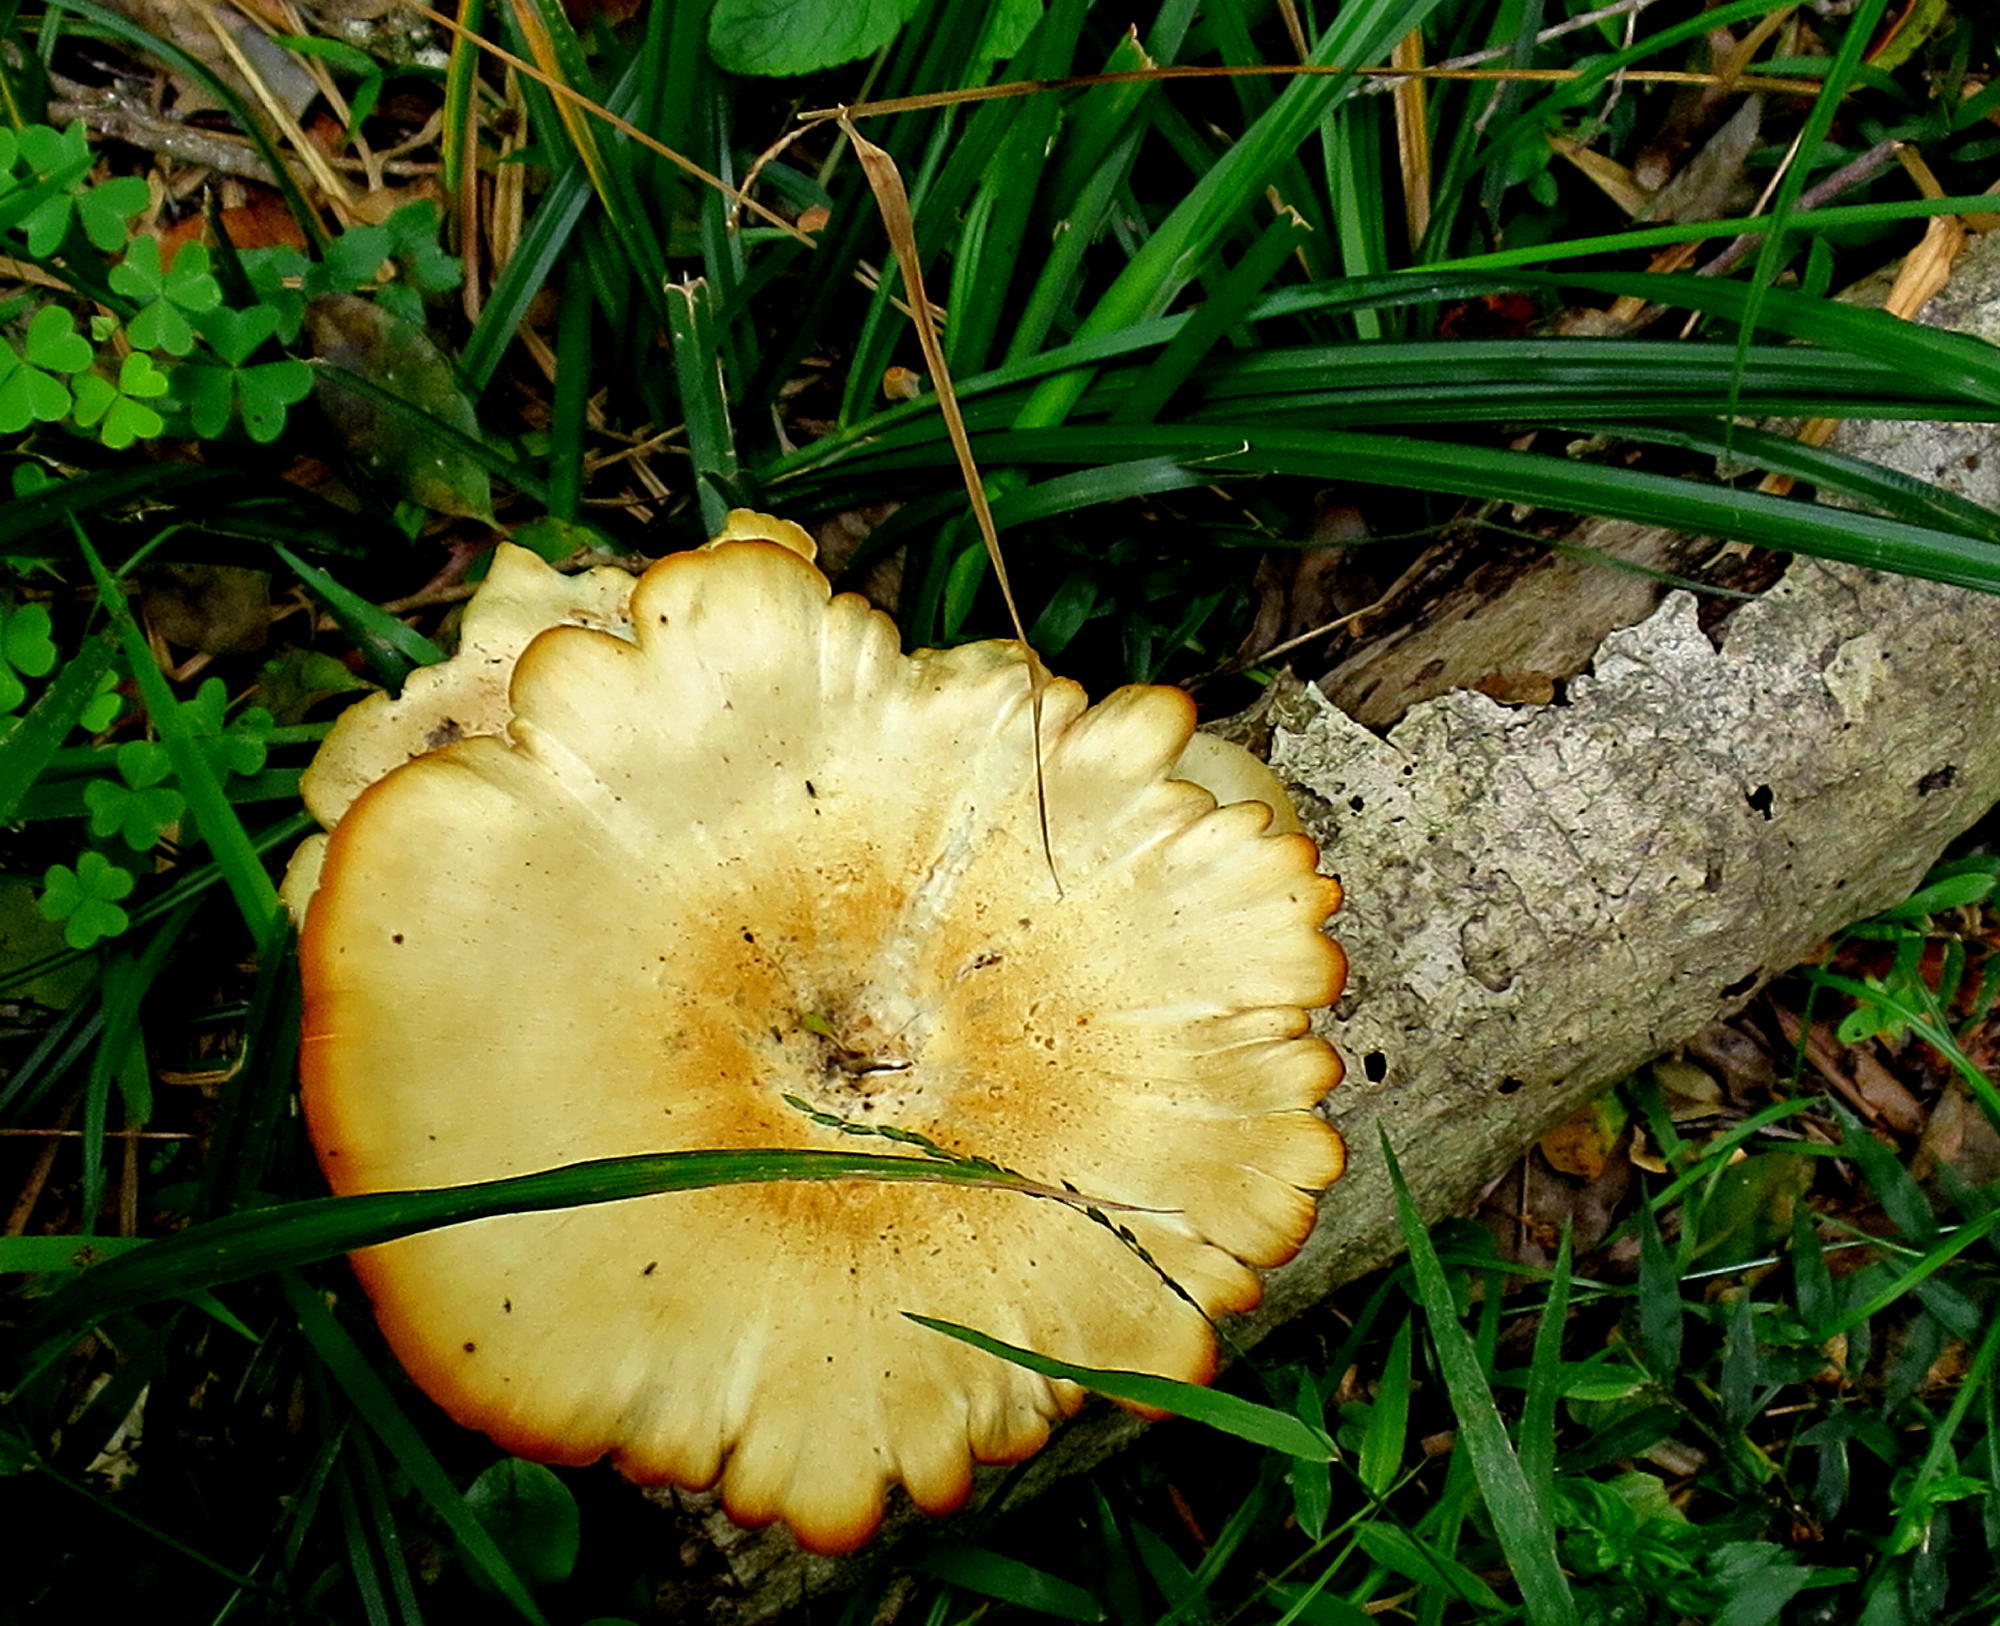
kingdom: Fungi
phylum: Basidiomycota
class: Agaricomycetes
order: Polyporales
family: Polyporaceae
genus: Lentinus
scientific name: Lentinus sajor-caju
